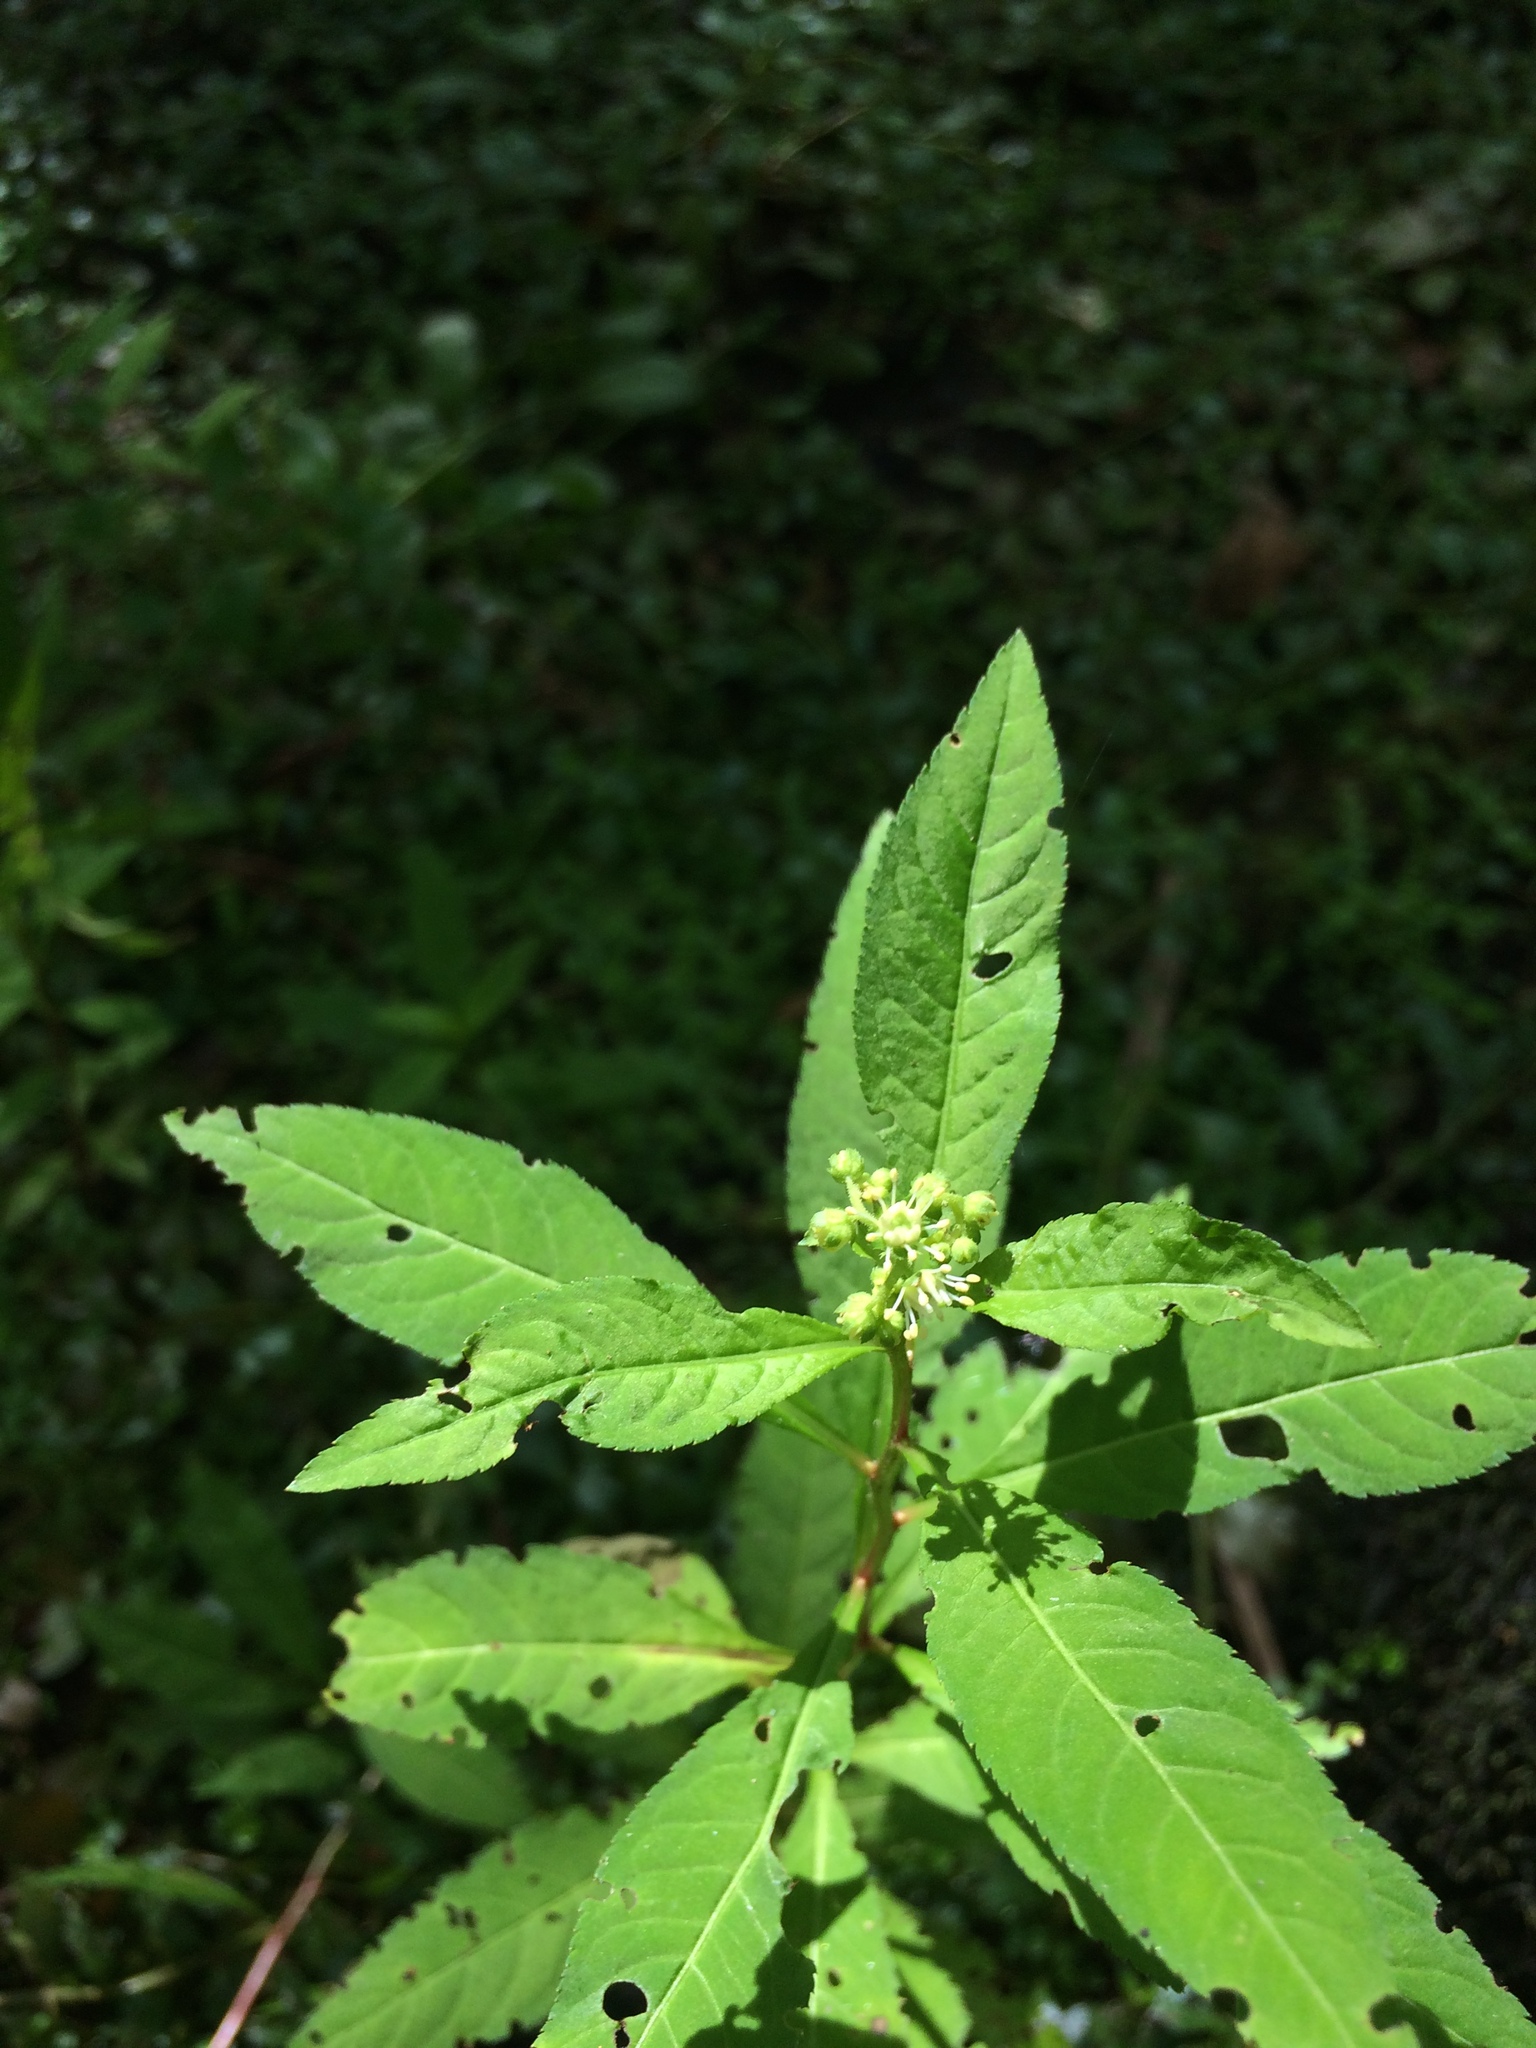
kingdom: Plantae
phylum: Tracheophyta
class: Magnoliopsida
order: Saxifragales
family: Penthoraceae
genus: Penthorum
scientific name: Penthorum sedoides
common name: Ditch stonecrop
